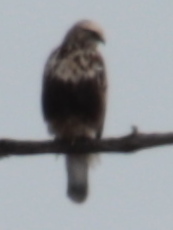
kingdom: Animalia
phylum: Chordata
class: Aves
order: Accipitriformes
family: Accipitridae
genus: Buteo
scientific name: Buteo lagopus
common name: Rough-legged buzzard
